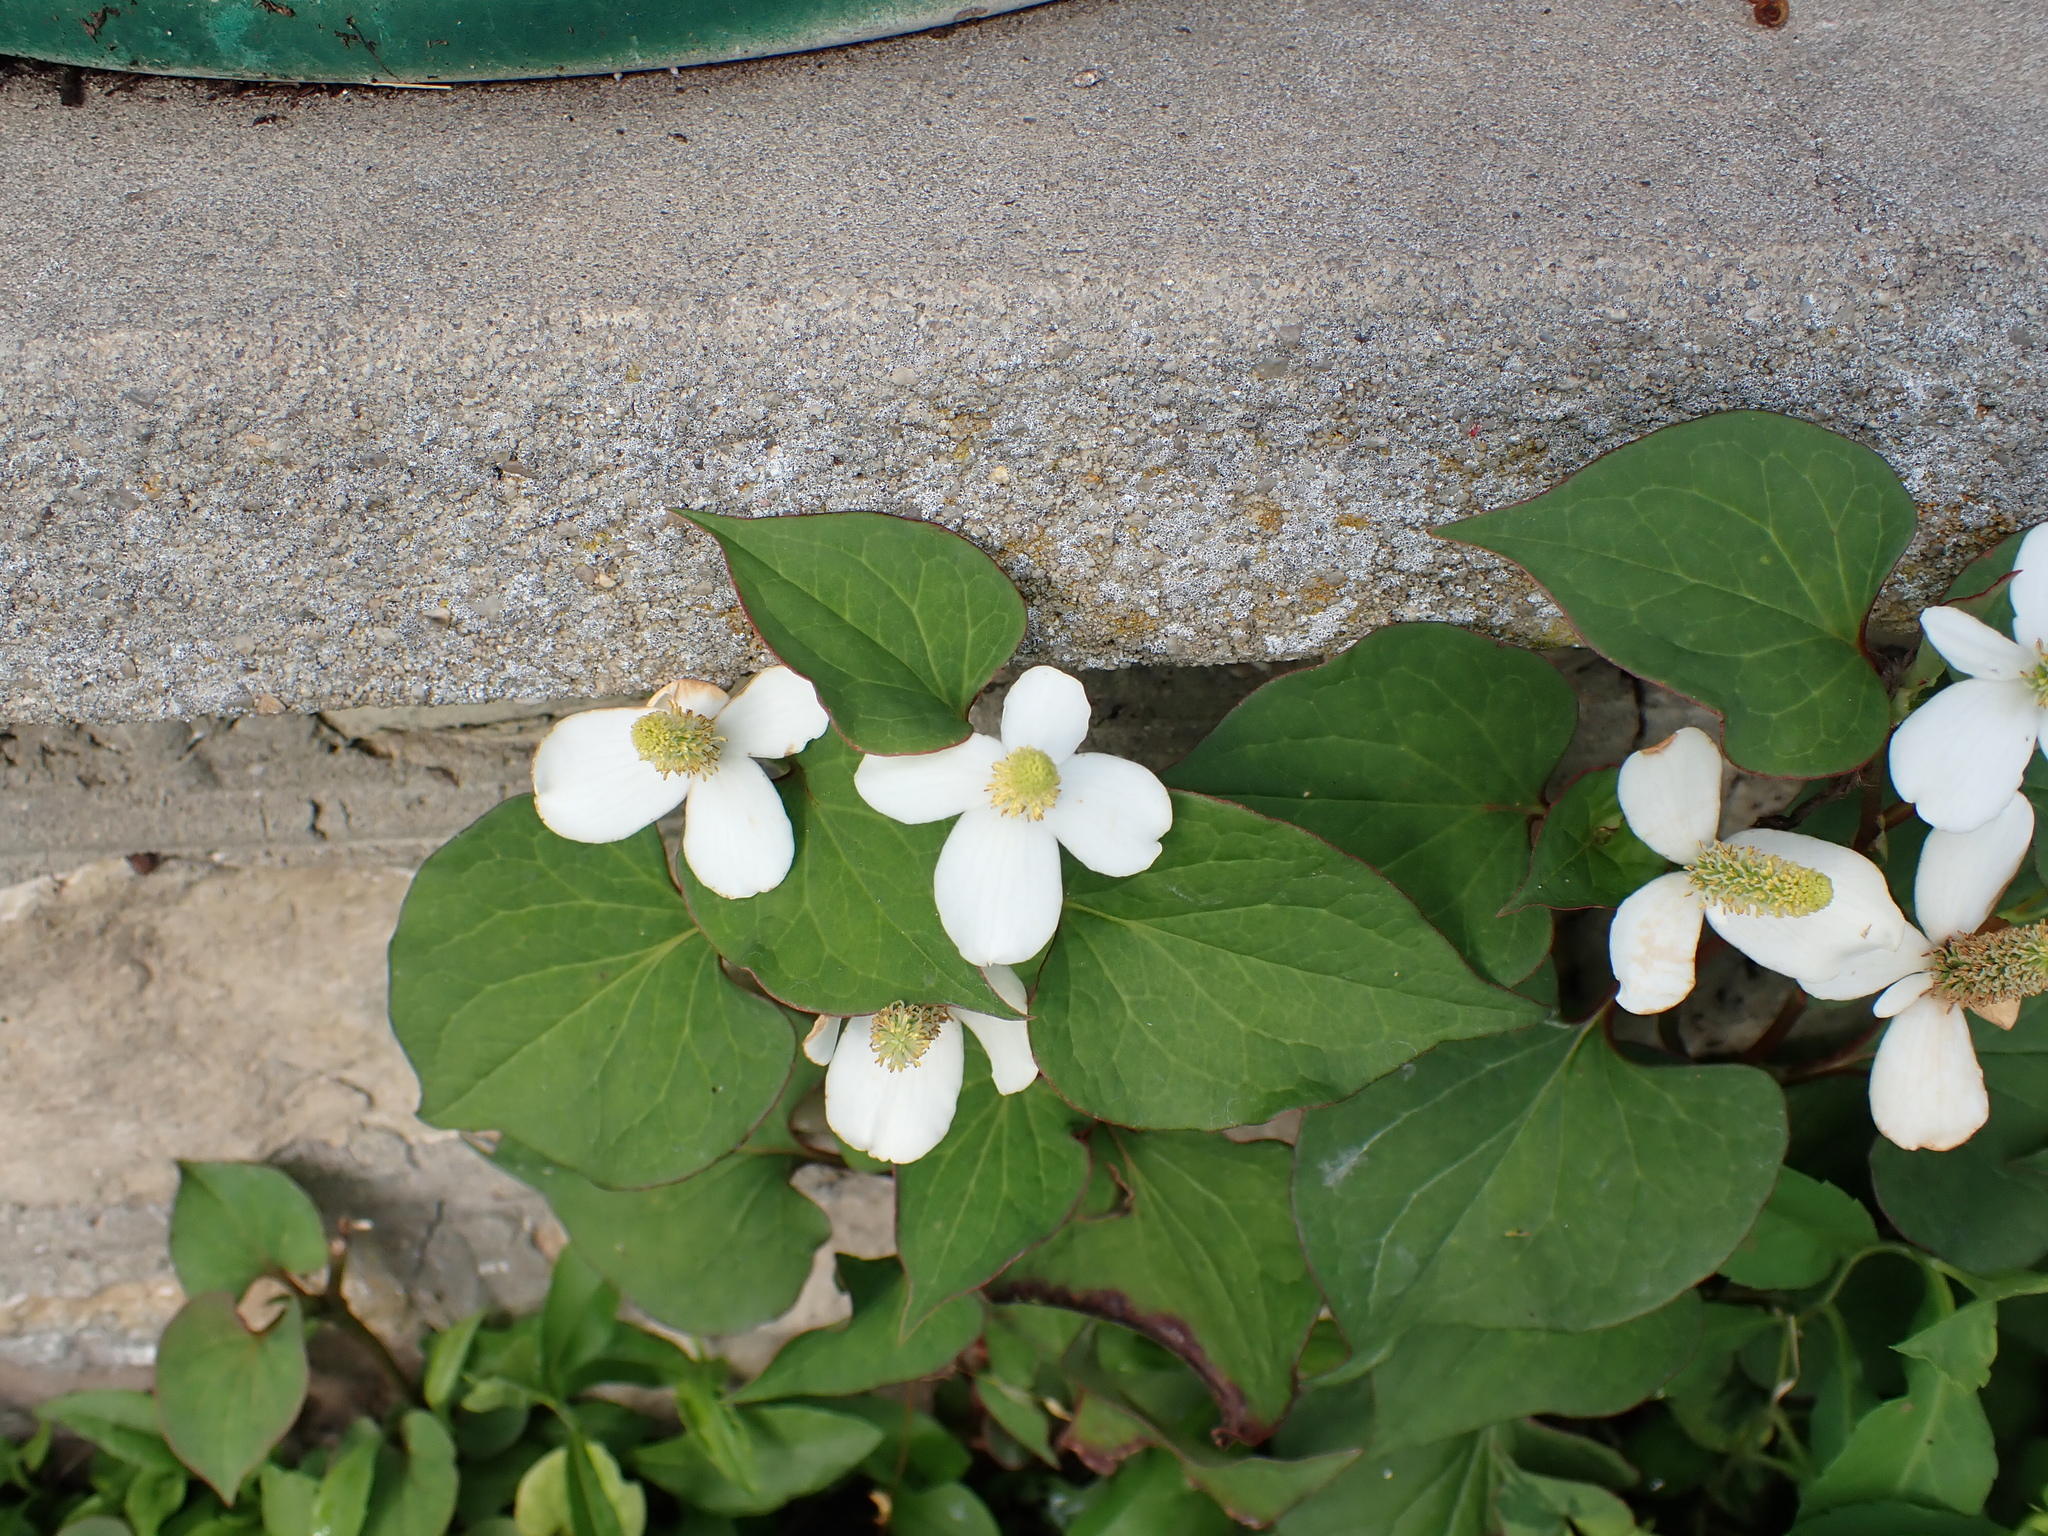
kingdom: Plantae
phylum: Tracheophyta
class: Magnoliopsida
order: Piperales
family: Saururaceae
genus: Houttuynia
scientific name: Houttuynia cordata
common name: Chameleon
